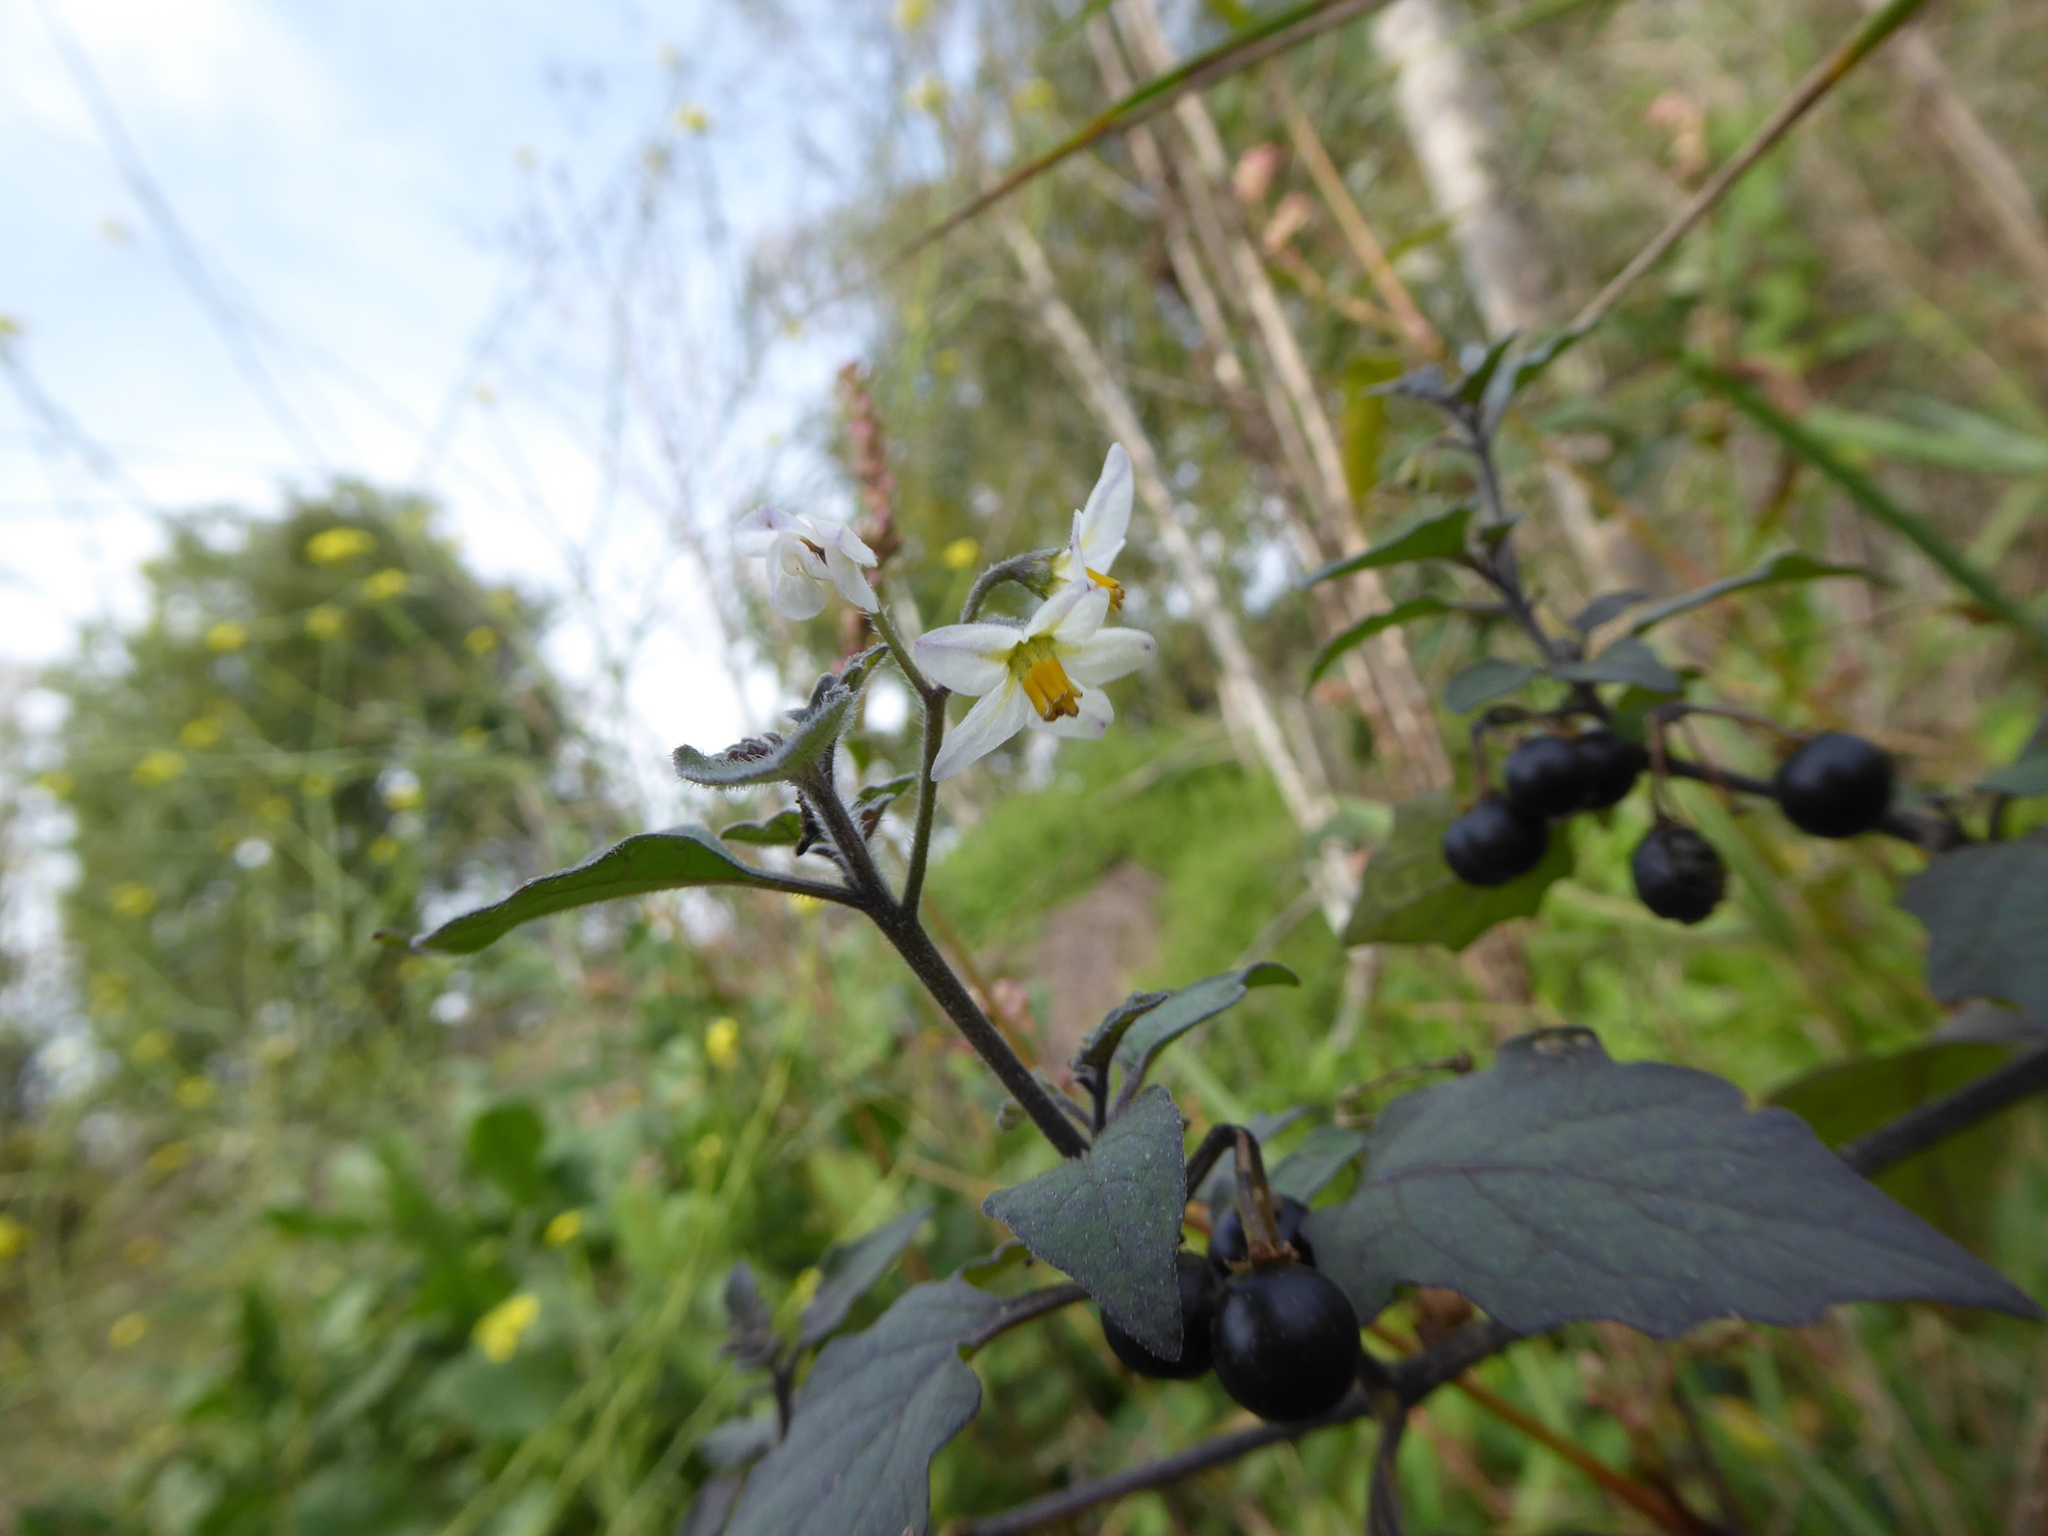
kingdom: Plantae
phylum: Tracheophyta
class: Magnoliopsida
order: Solanales
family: Solanaceae
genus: Solanum
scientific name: Solanum nigrum
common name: Black nightshade
